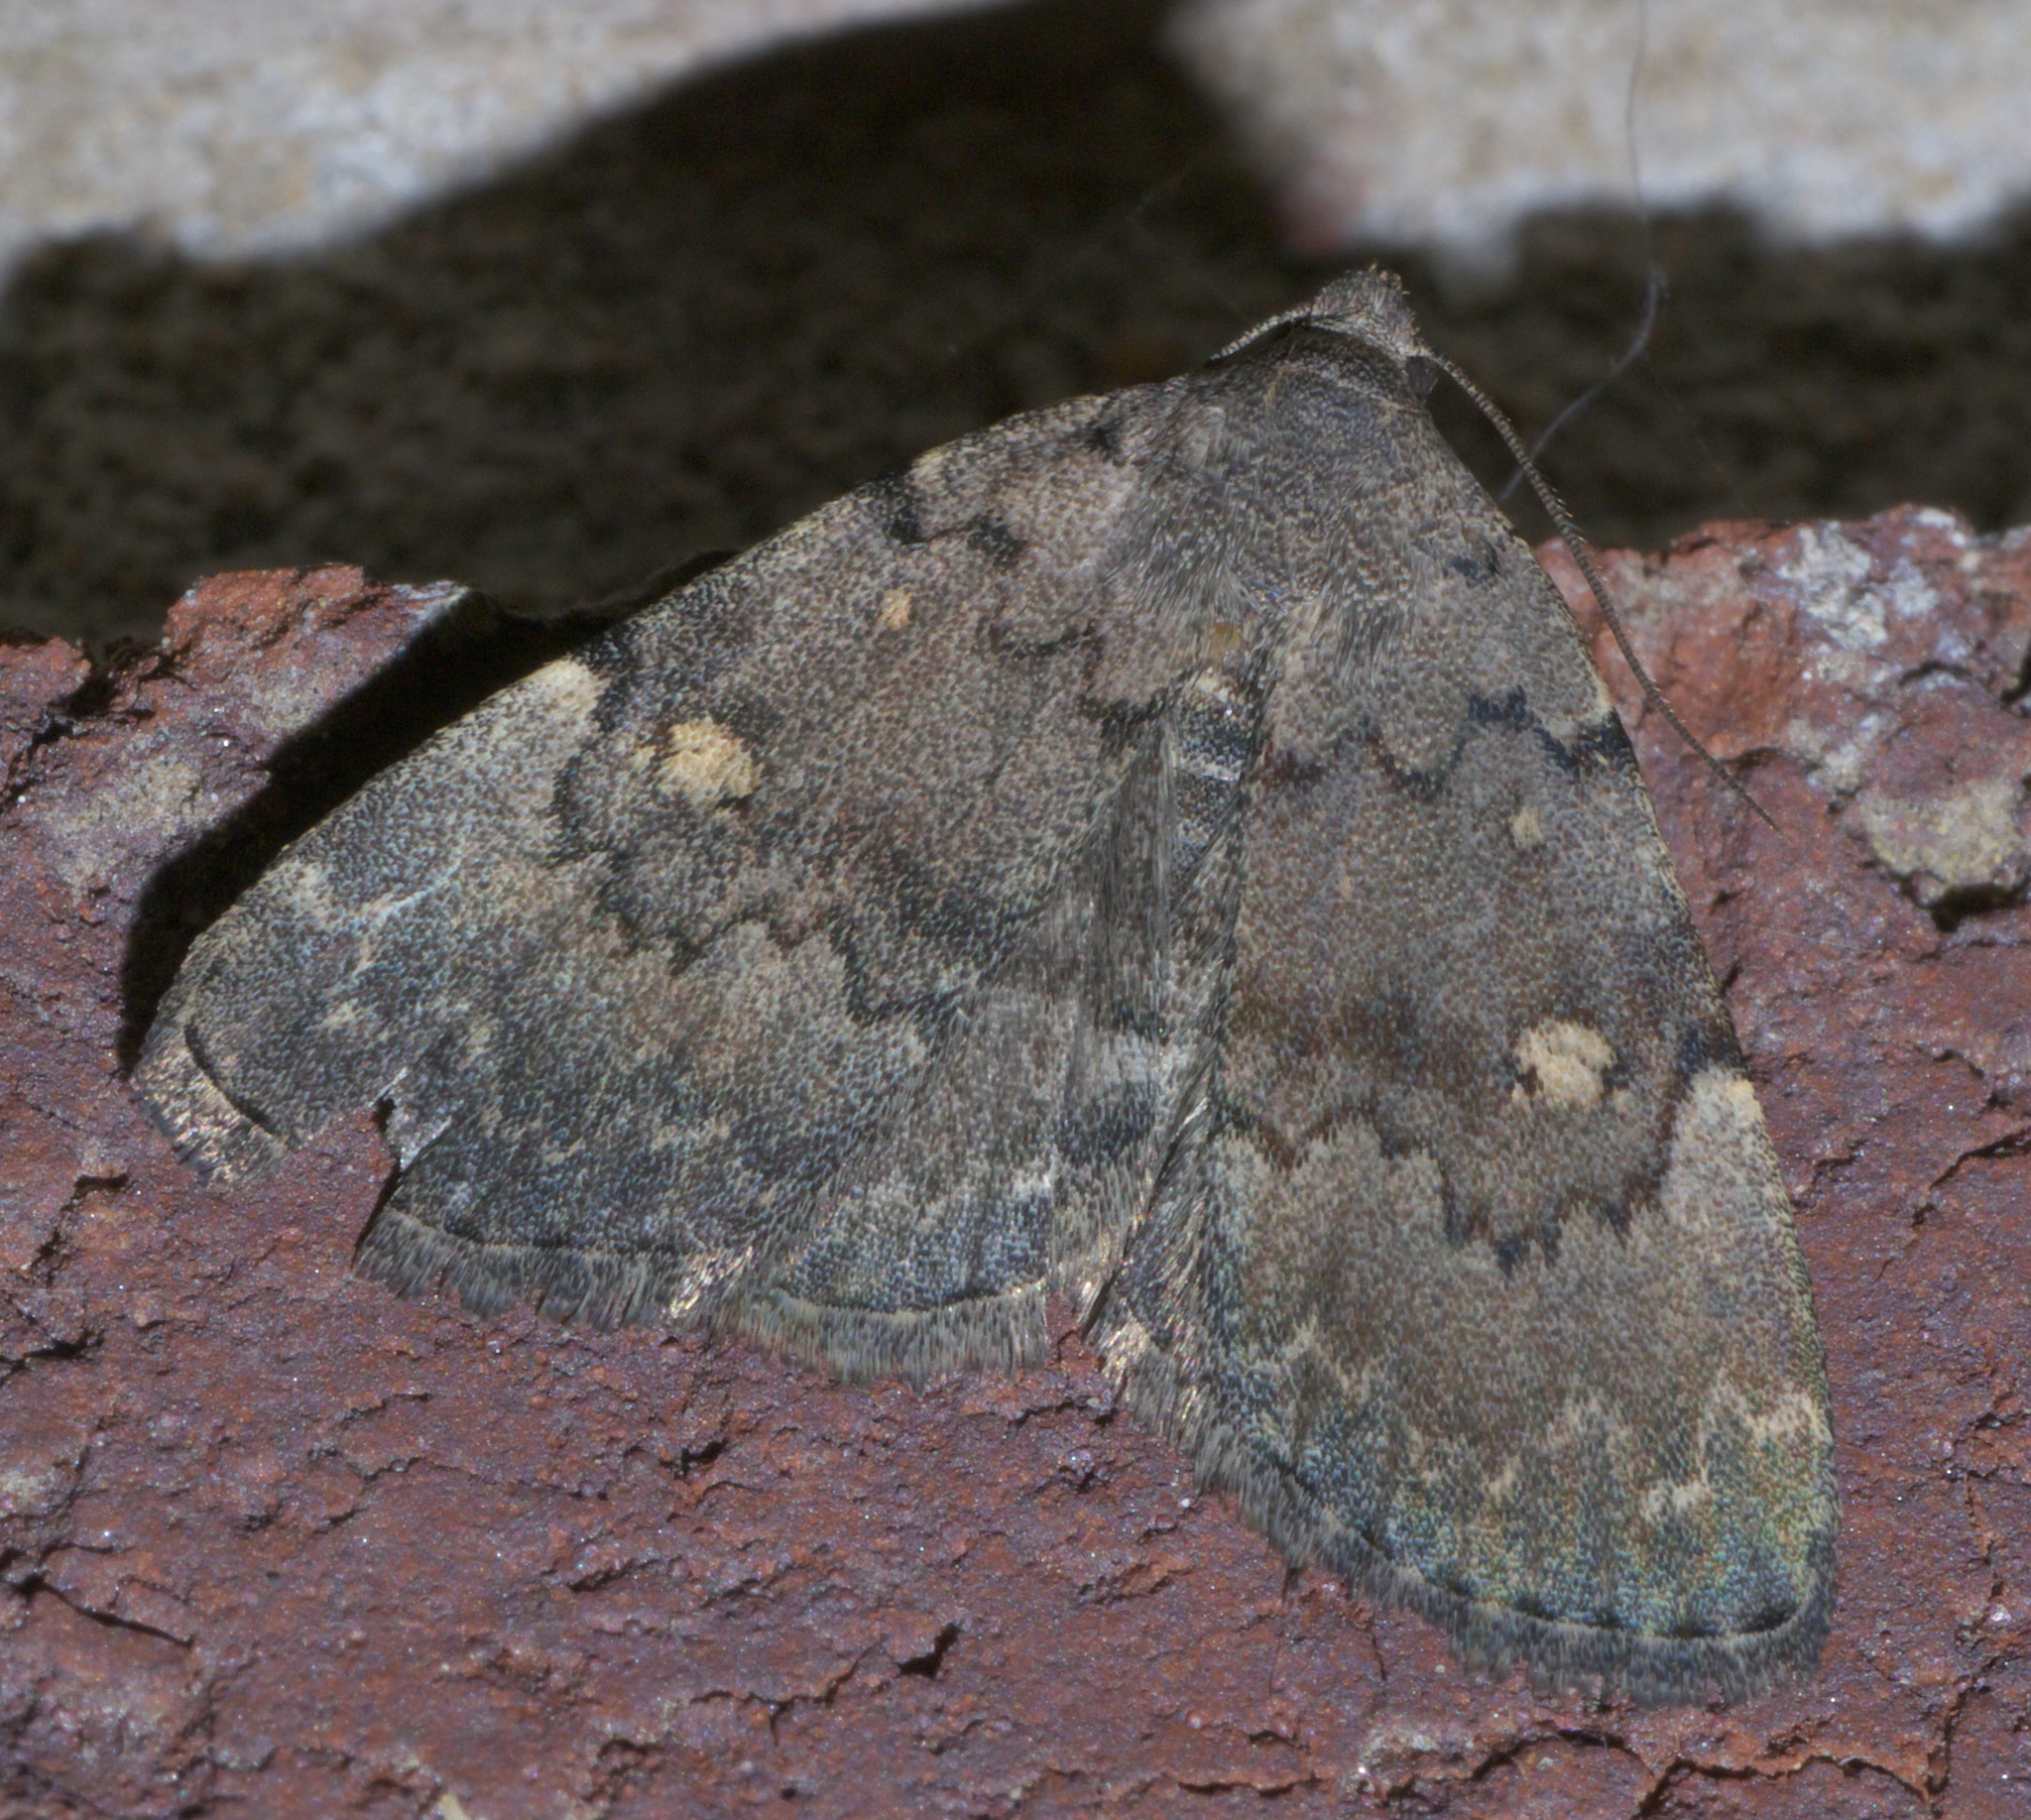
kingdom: Animalia
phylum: Arthropoda
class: Insecta
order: Lepidoptera
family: Erebidae
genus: Idia
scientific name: Idia aemula
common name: Common idia moth
